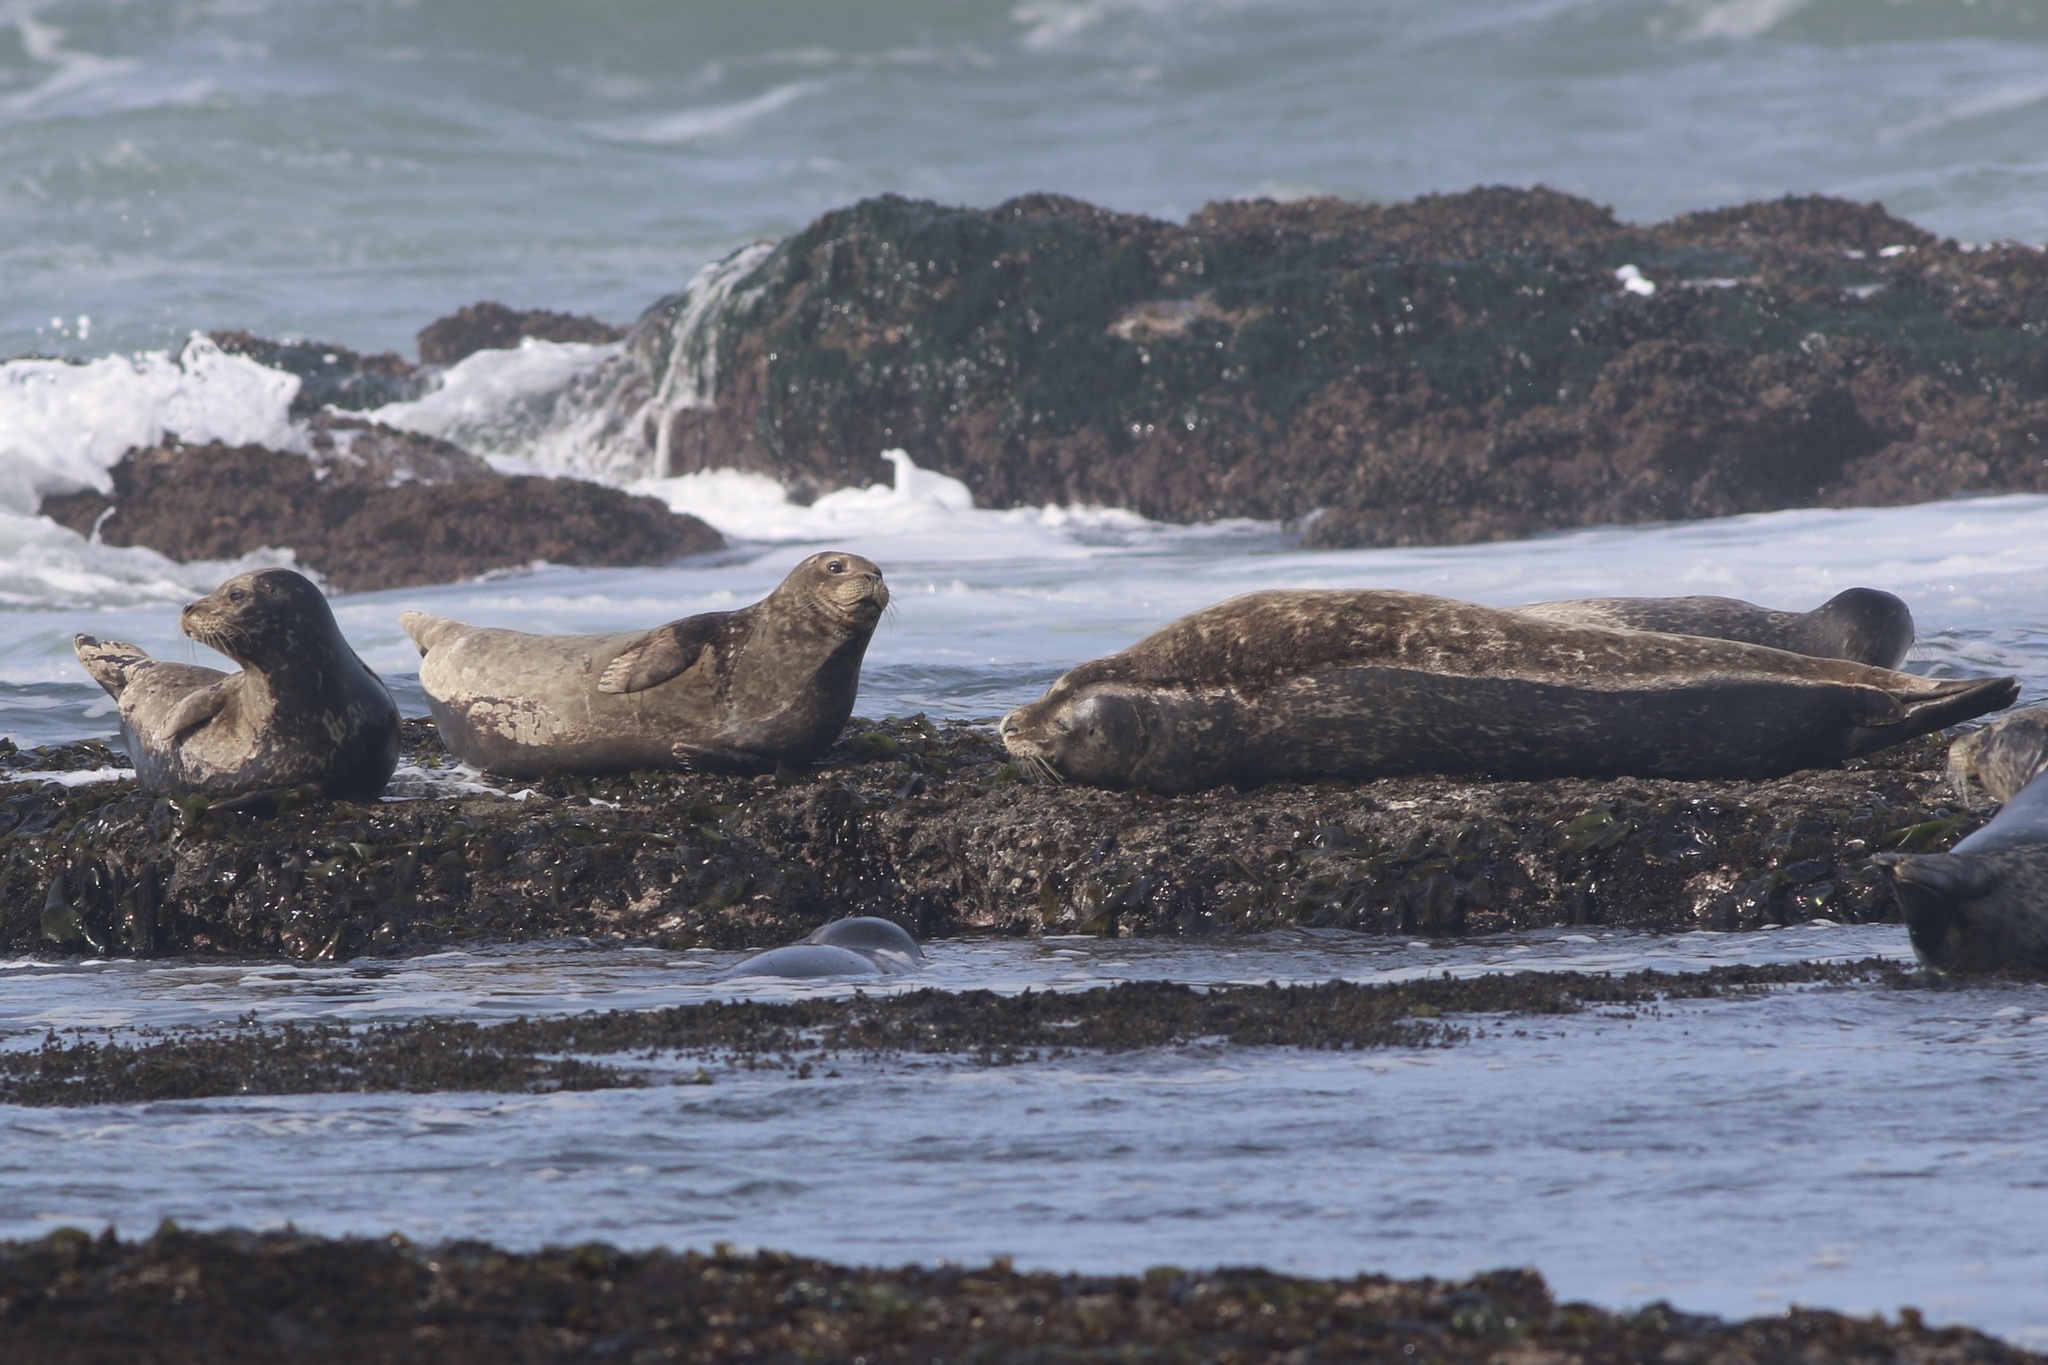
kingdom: Animalia
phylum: Chordata
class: Mammalia
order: Carnivora
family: Phocidae
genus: Phoca
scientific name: Phoca vitulina
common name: Harbor seal
